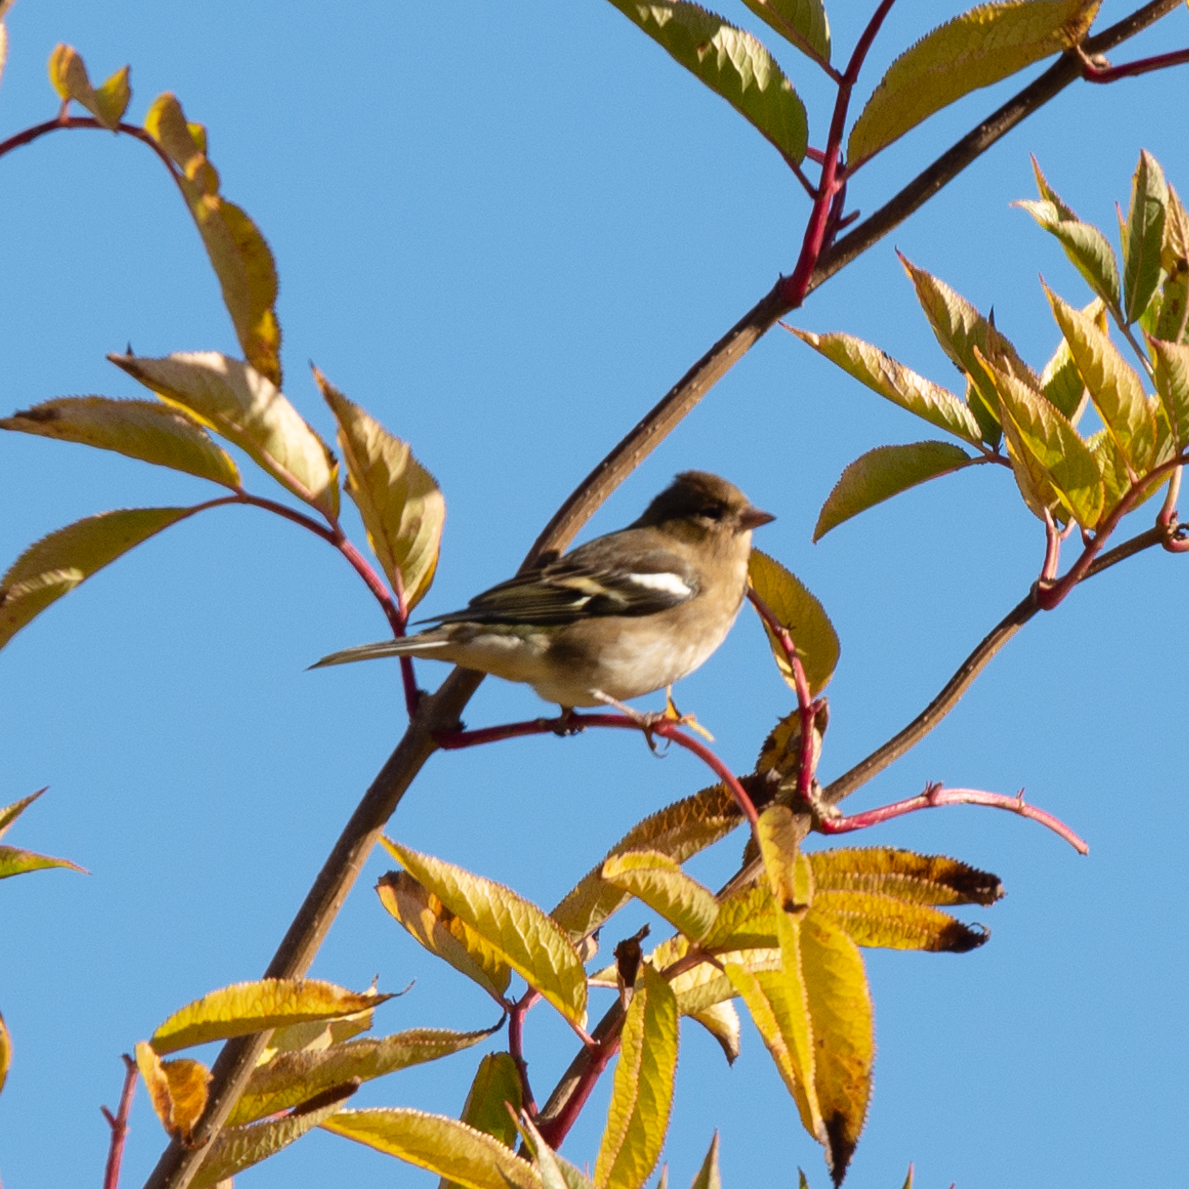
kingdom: Animalia
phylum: Chordata
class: Aves
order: Passeriformes
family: Fringillidae
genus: Fringilla
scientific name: Fringilla coelebs
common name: Common chaffinch
